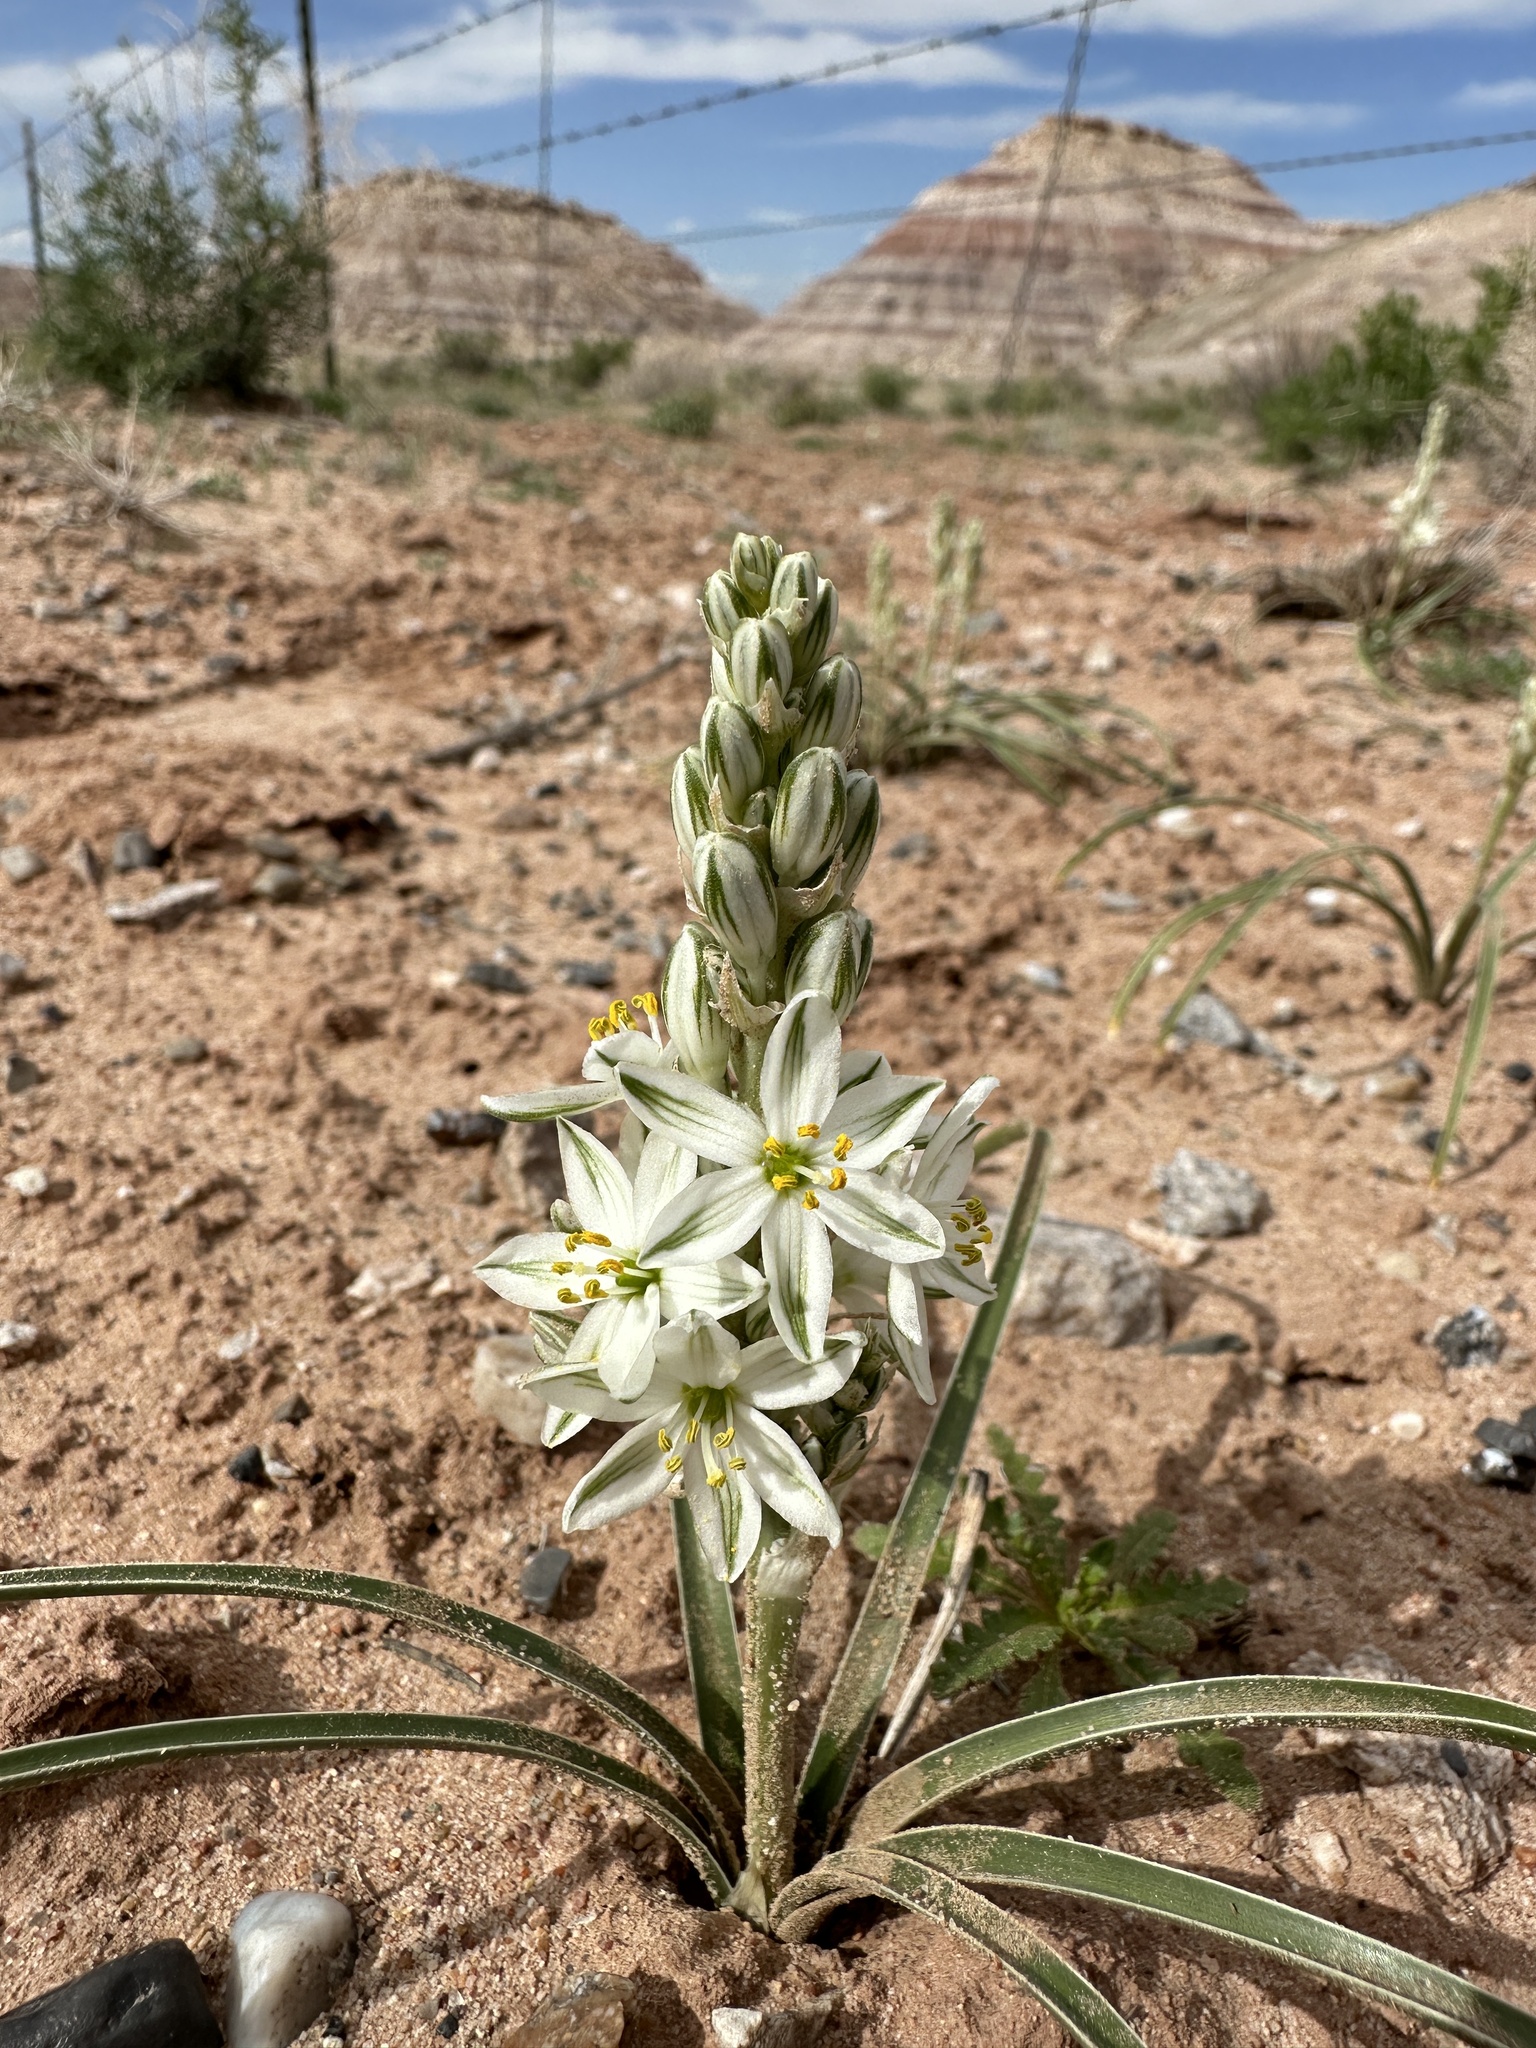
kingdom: Plantae
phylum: Tracheophyta
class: Liliopsida
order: Asparagales
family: Asparagaceae
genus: Eremocrinum
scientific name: Eremocrinum albomarginatum
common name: Sand-lily
